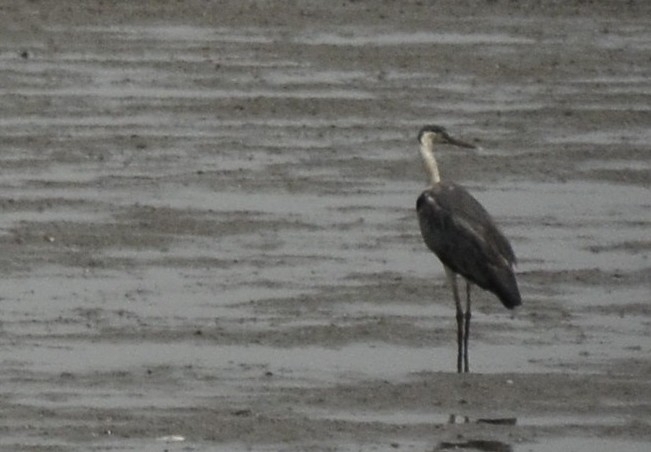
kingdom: Animalia
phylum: Chordata
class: Aves
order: Pelecaniformes
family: Ardeidae
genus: Ardea
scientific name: Ardea cinerea
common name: Grey heron
